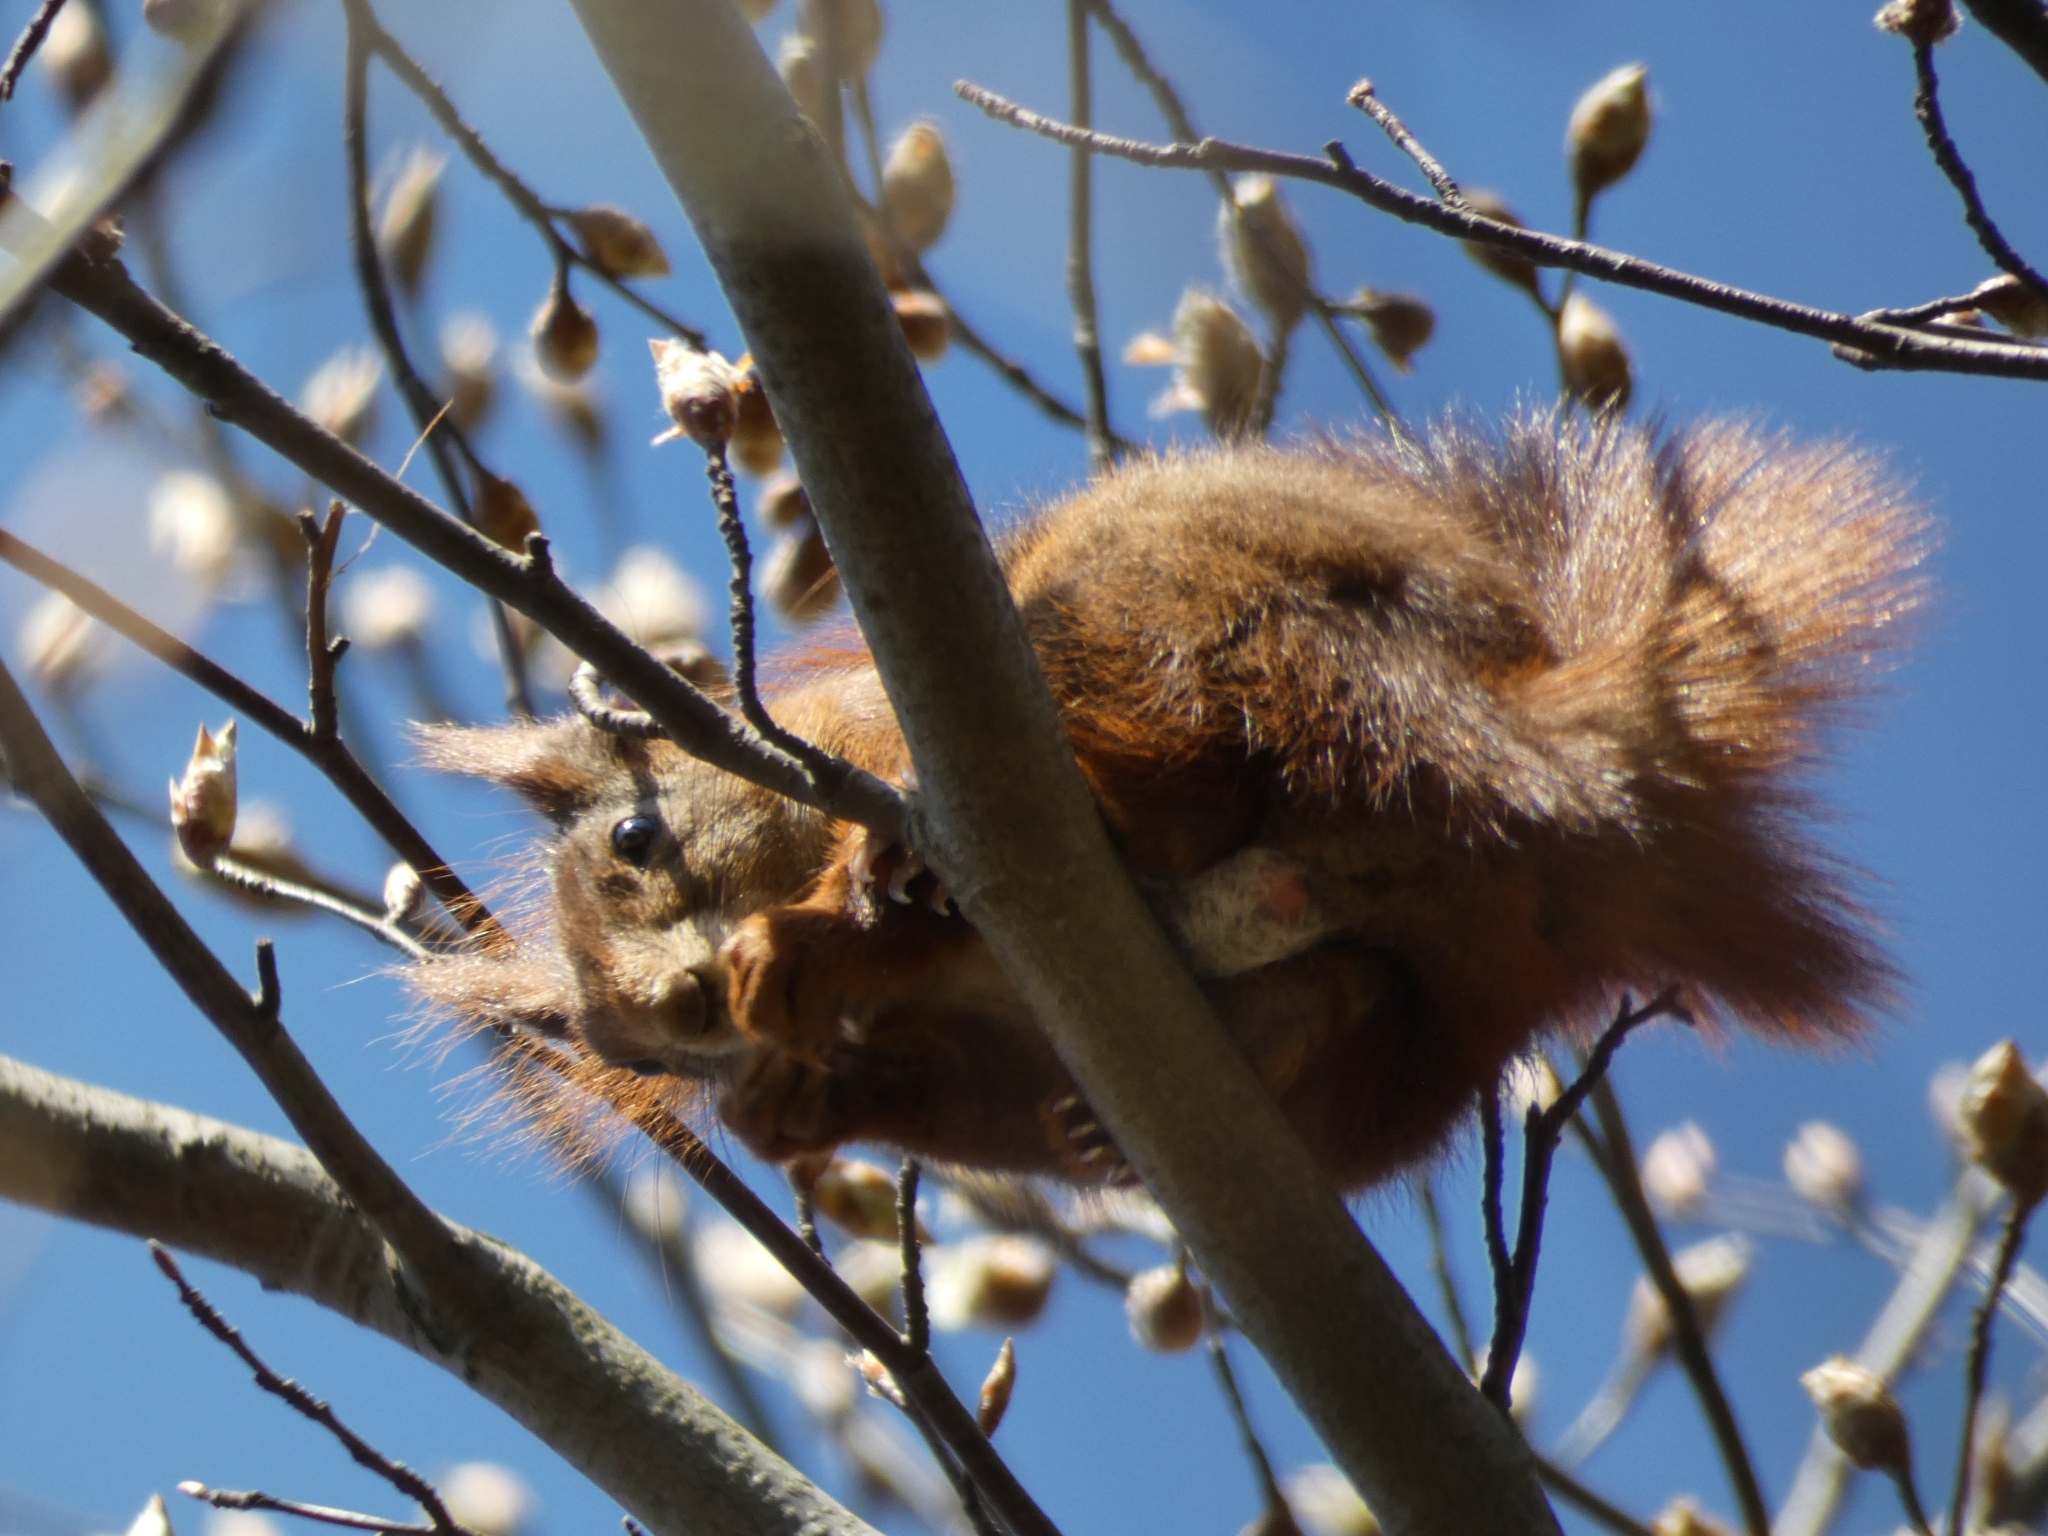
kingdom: Animalia
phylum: Chordata
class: Mammalia
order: Rodentia
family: Sciuridae
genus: Sciurus
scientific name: Sciurus vulgaris
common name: Eurasian red squirrel
